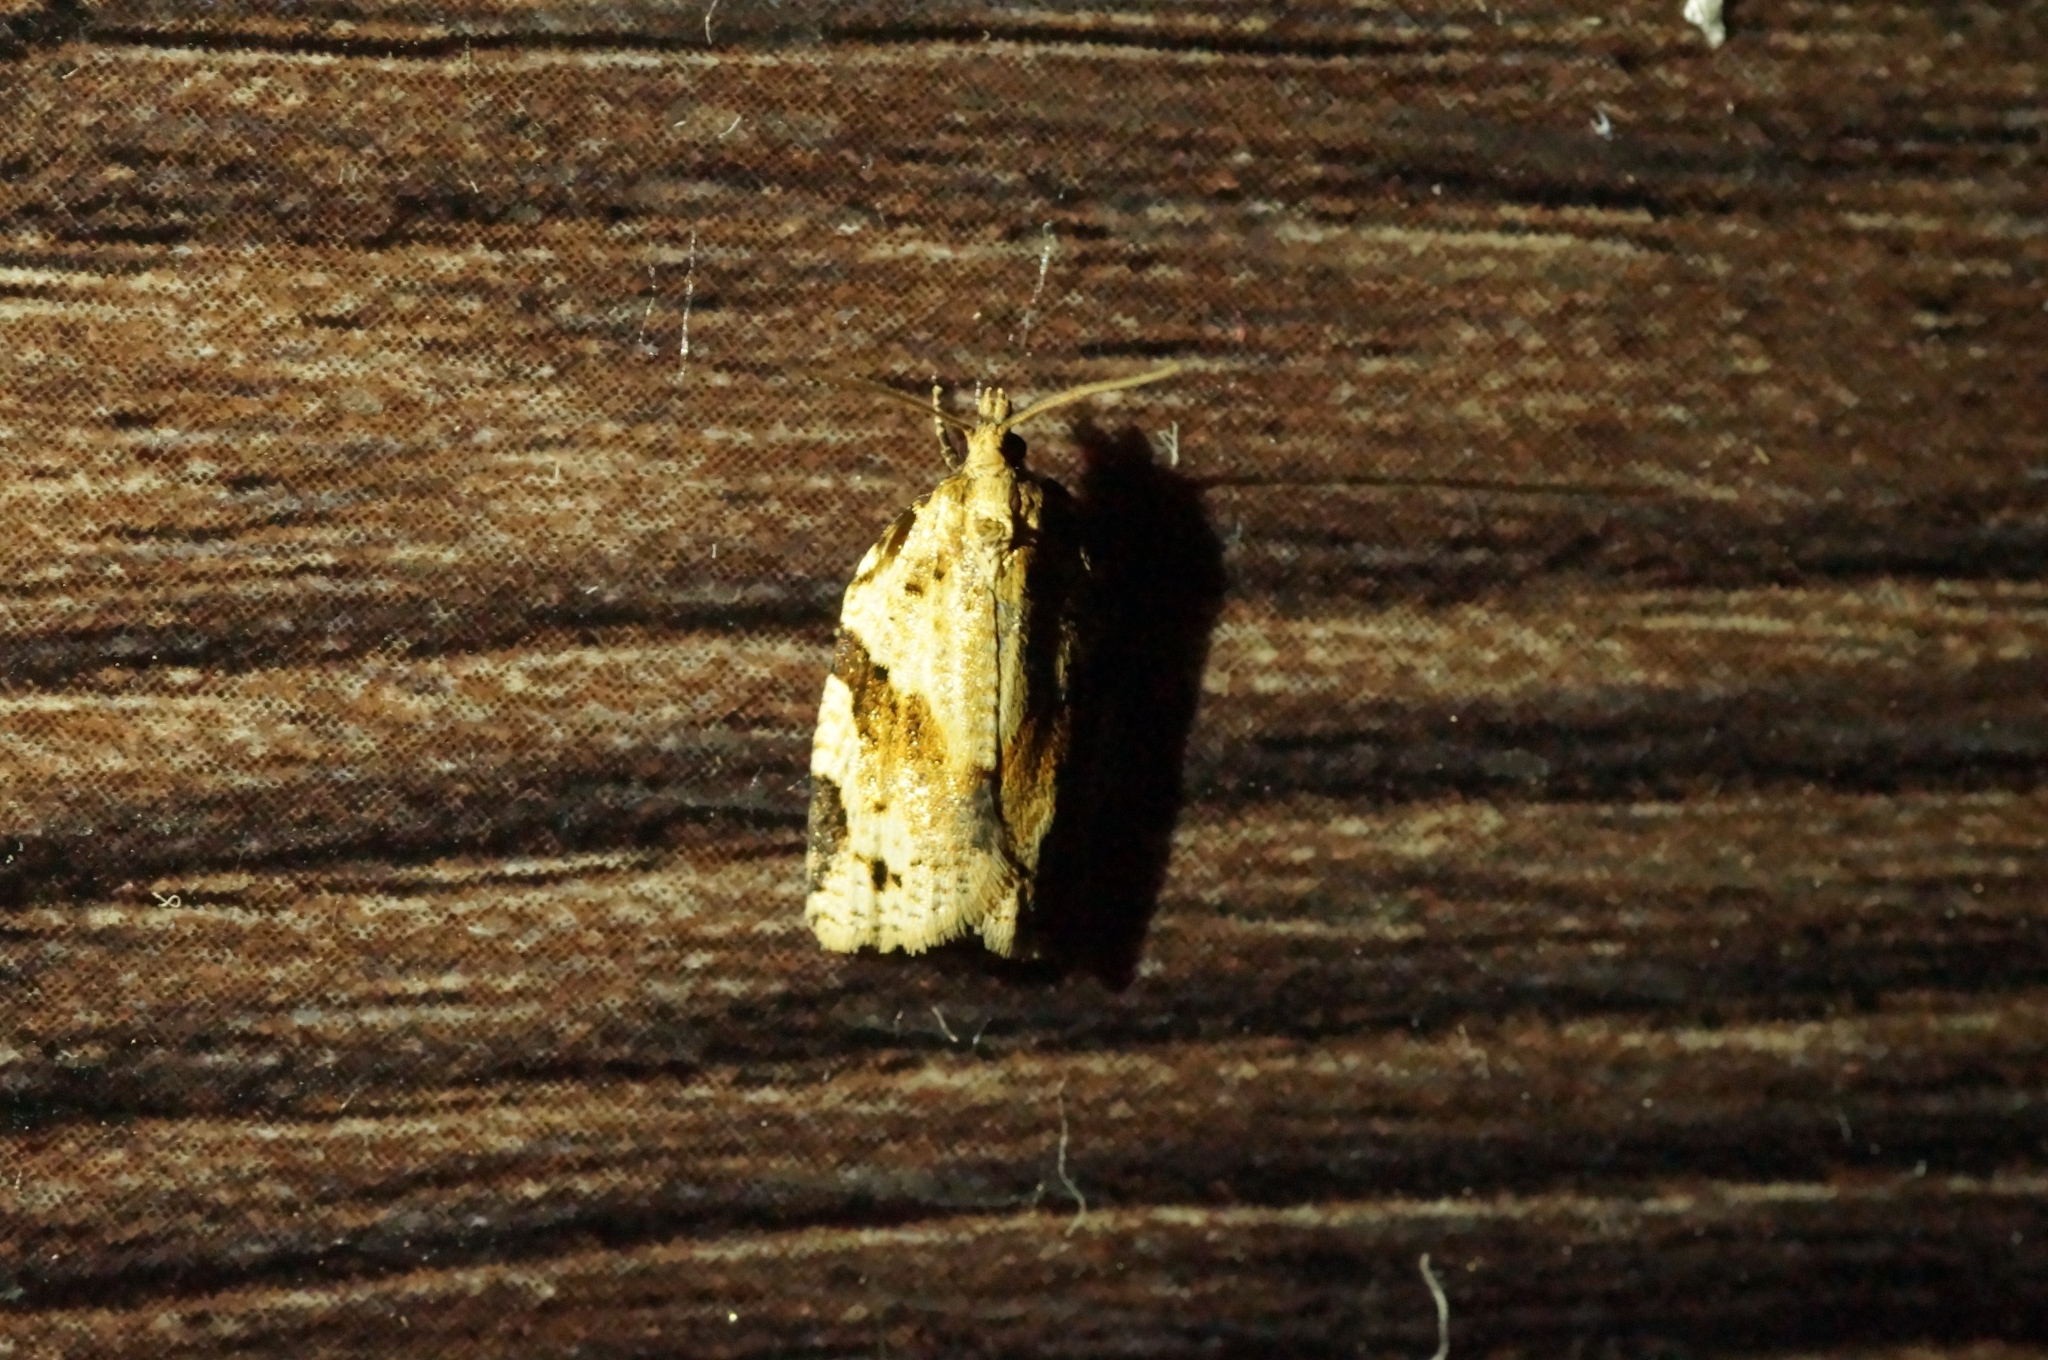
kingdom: Animalia
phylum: Arthropoda
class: Insecta
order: Lepidoptera
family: Tortricidae
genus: Clepsis
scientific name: Clepsis spectrana
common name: Cyclamen tortrix
